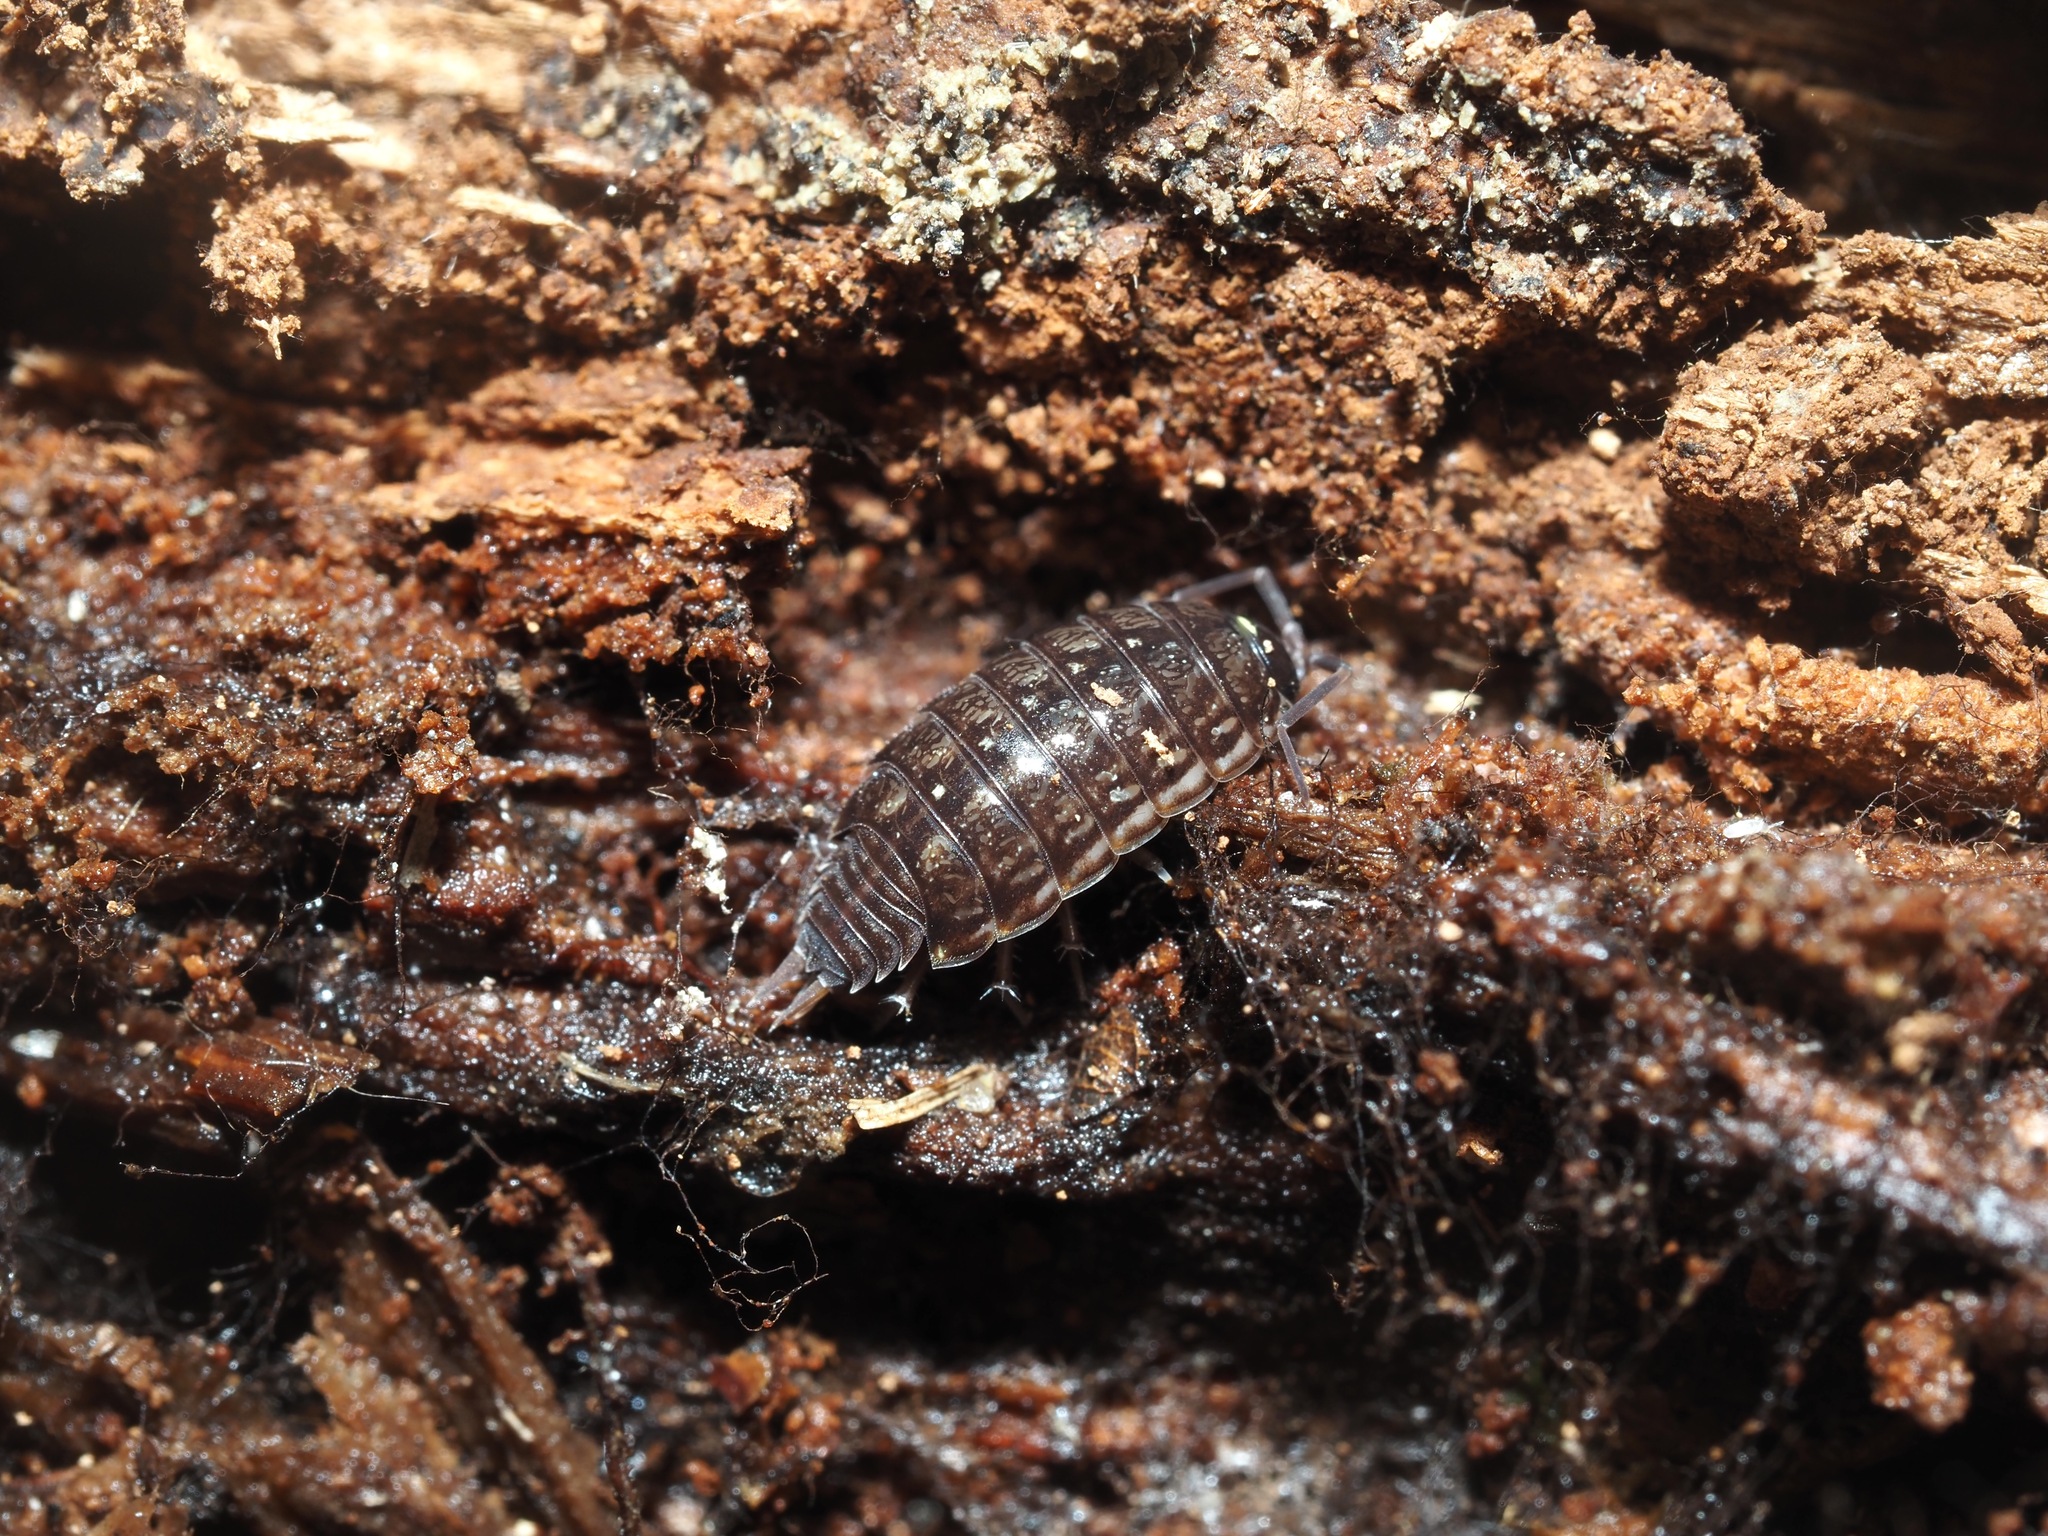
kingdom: Animalia
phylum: Arthropoda
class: Malacostraca
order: Isopoda
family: Philosciidae
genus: Philoscia
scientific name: Philoscia muscorum
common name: Common striped woodlouse
